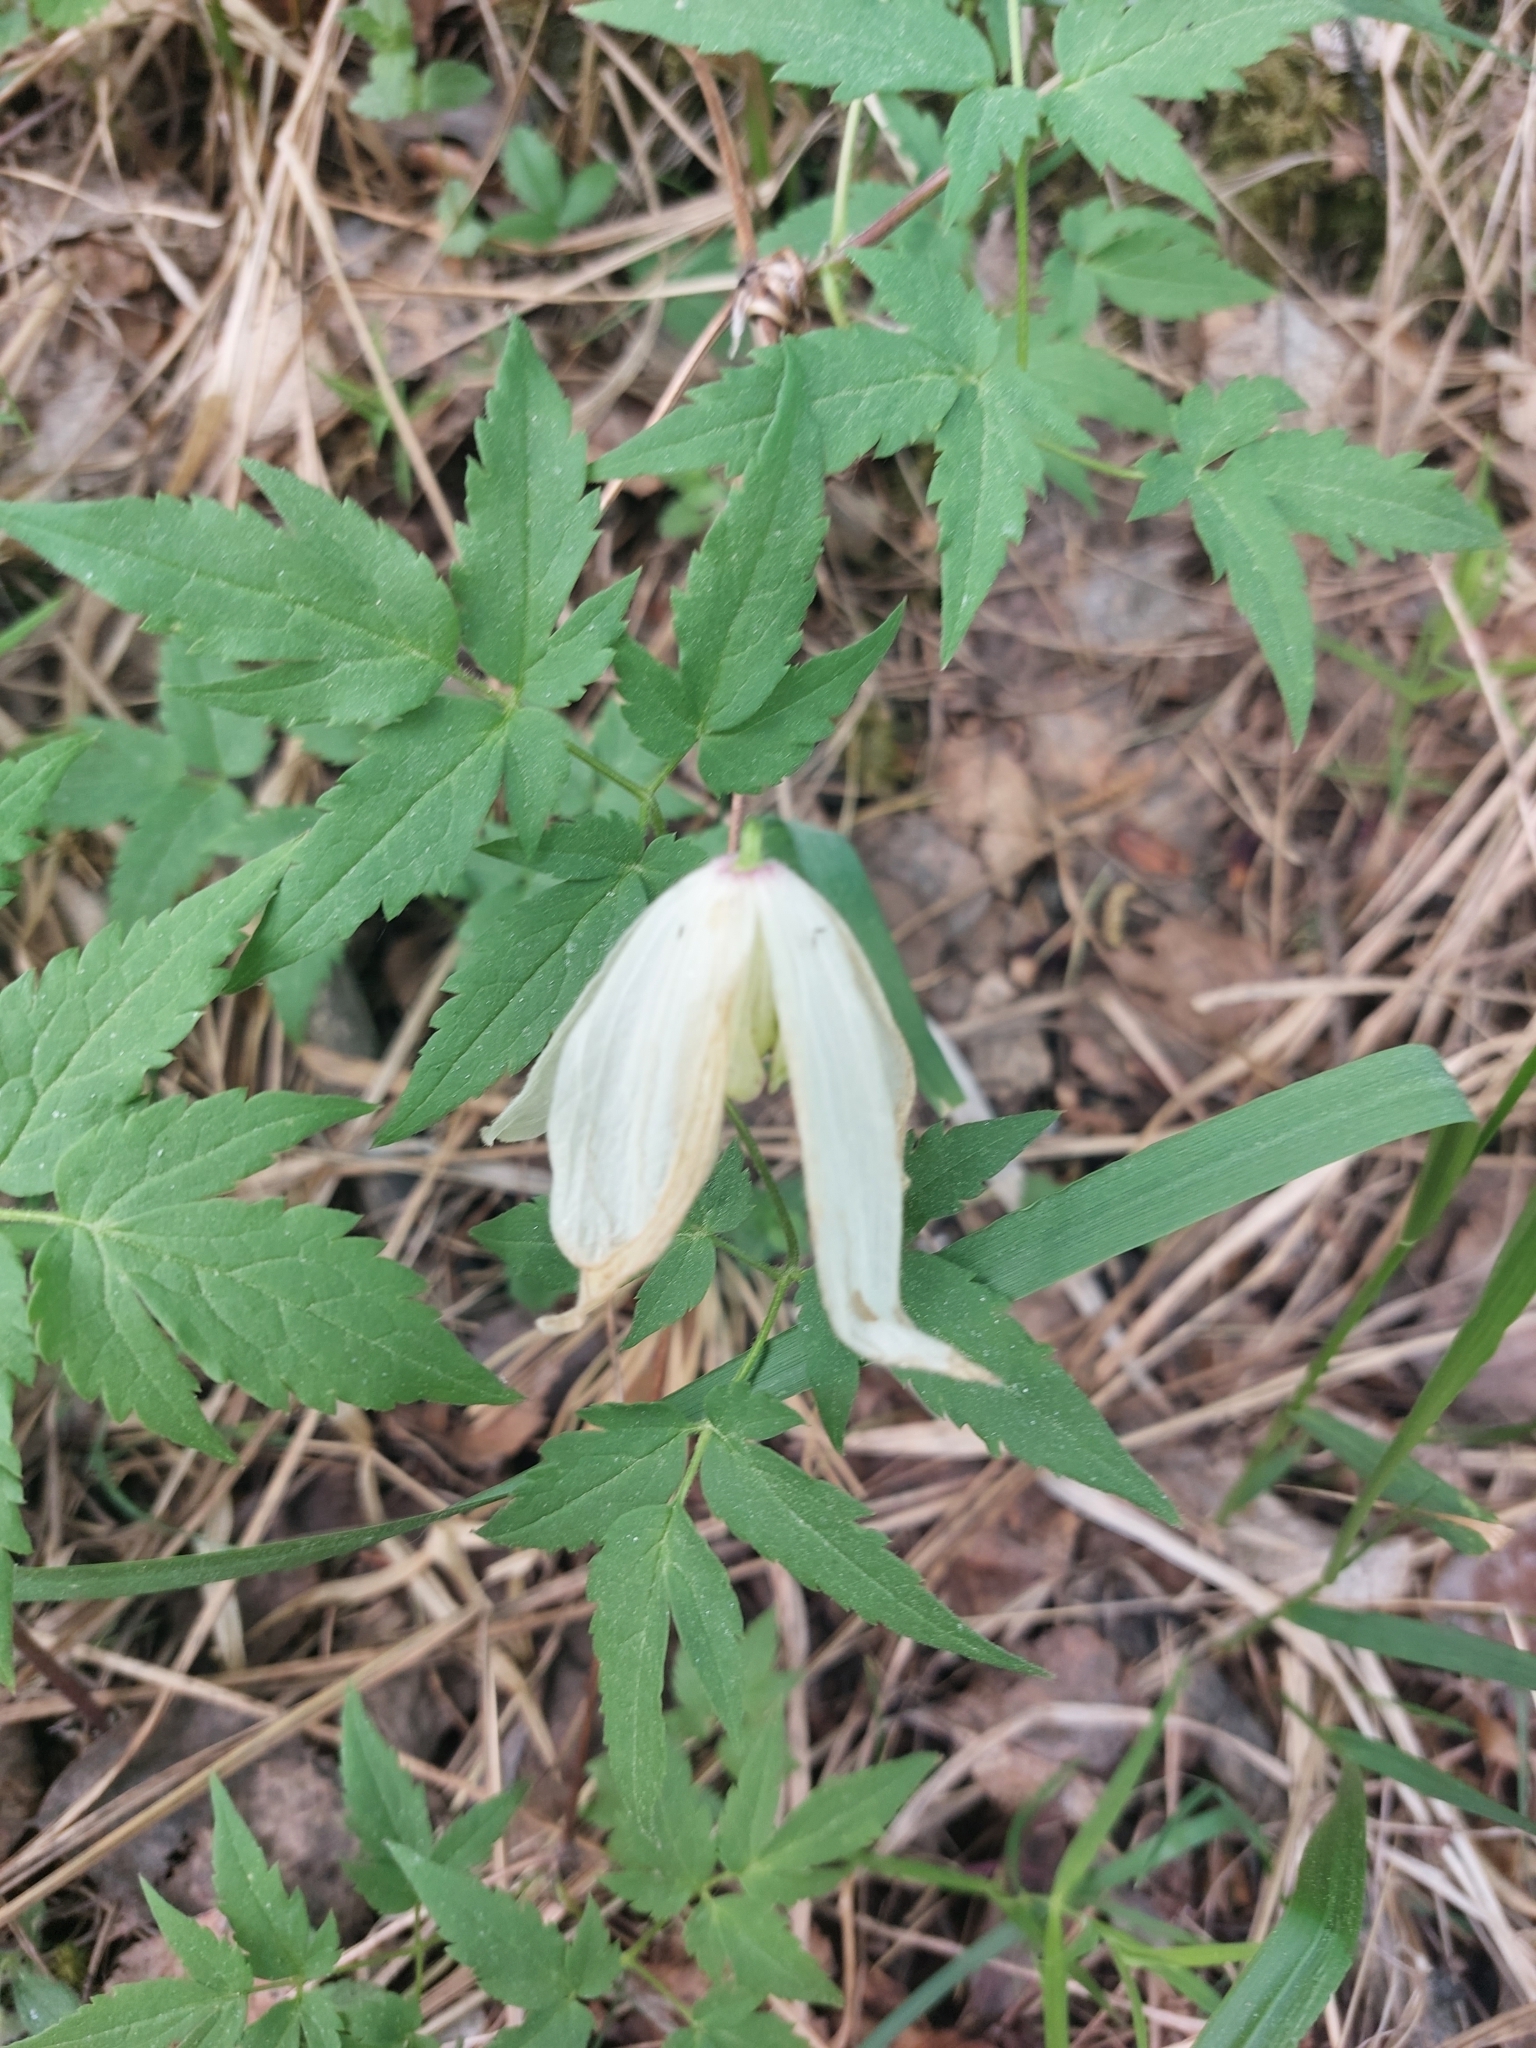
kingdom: Plantae
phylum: Tracheophyta
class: Magnoliopsida
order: Ranunculales
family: Ranunculaceae
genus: Clematis
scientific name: Clematis sibirica
